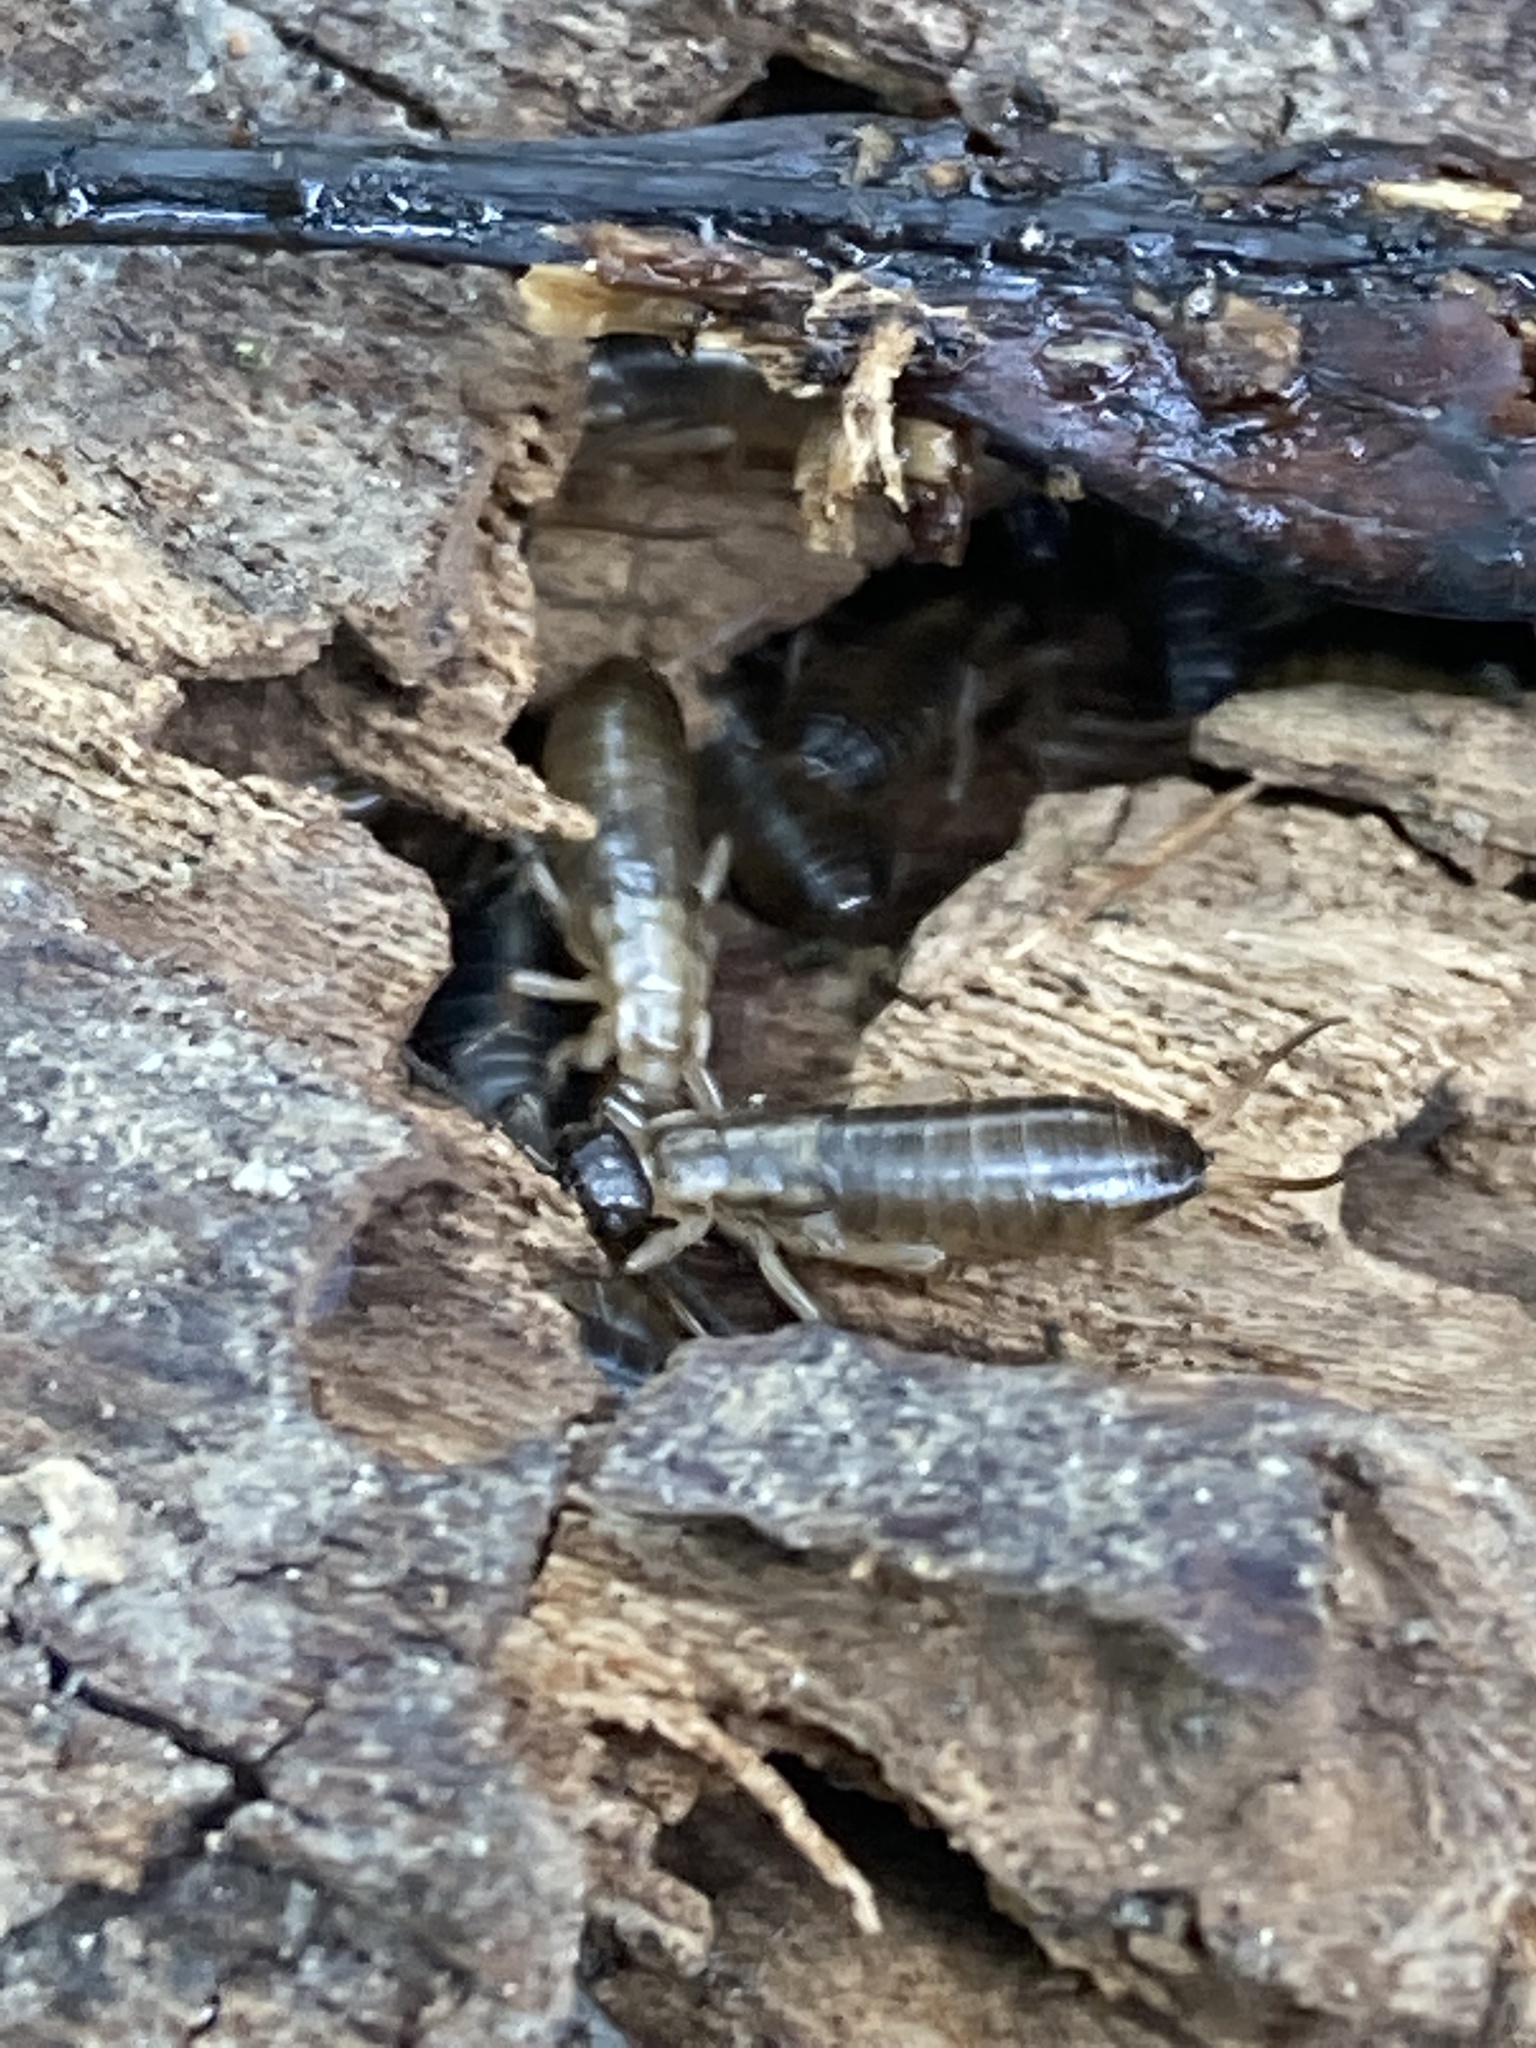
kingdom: Animalia
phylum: Arthropoda
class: Insecta
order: Dermaptera
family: Forficulidae
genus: Forficula
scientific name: Forficula
